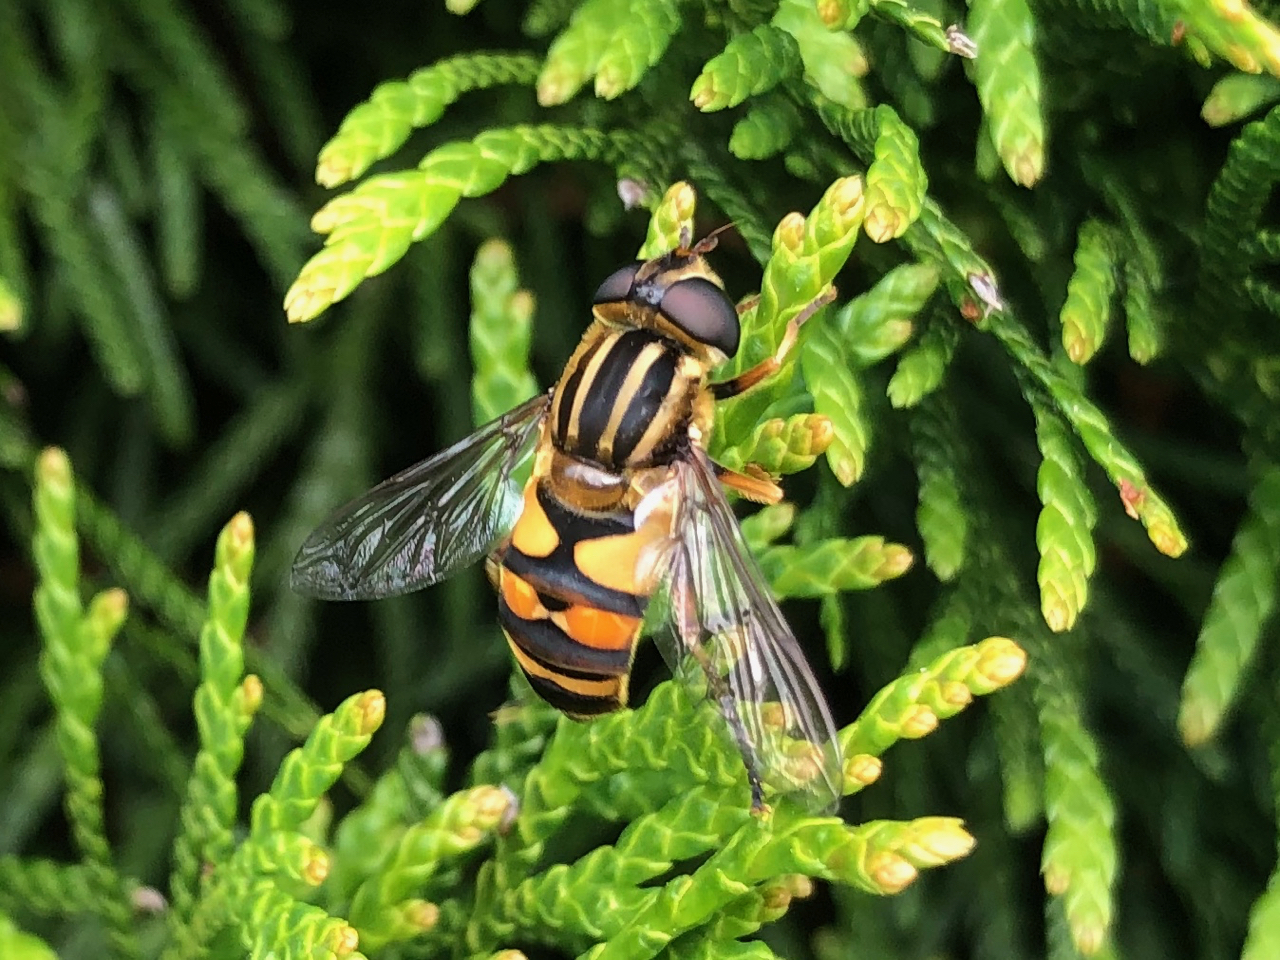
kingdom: Animalia
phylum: Arthropoda
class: Insecta
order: Diptera
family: Syrphidae
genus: Helophilus
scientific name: Helophilus fasciatus
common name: Narrow-headed marsh fly
